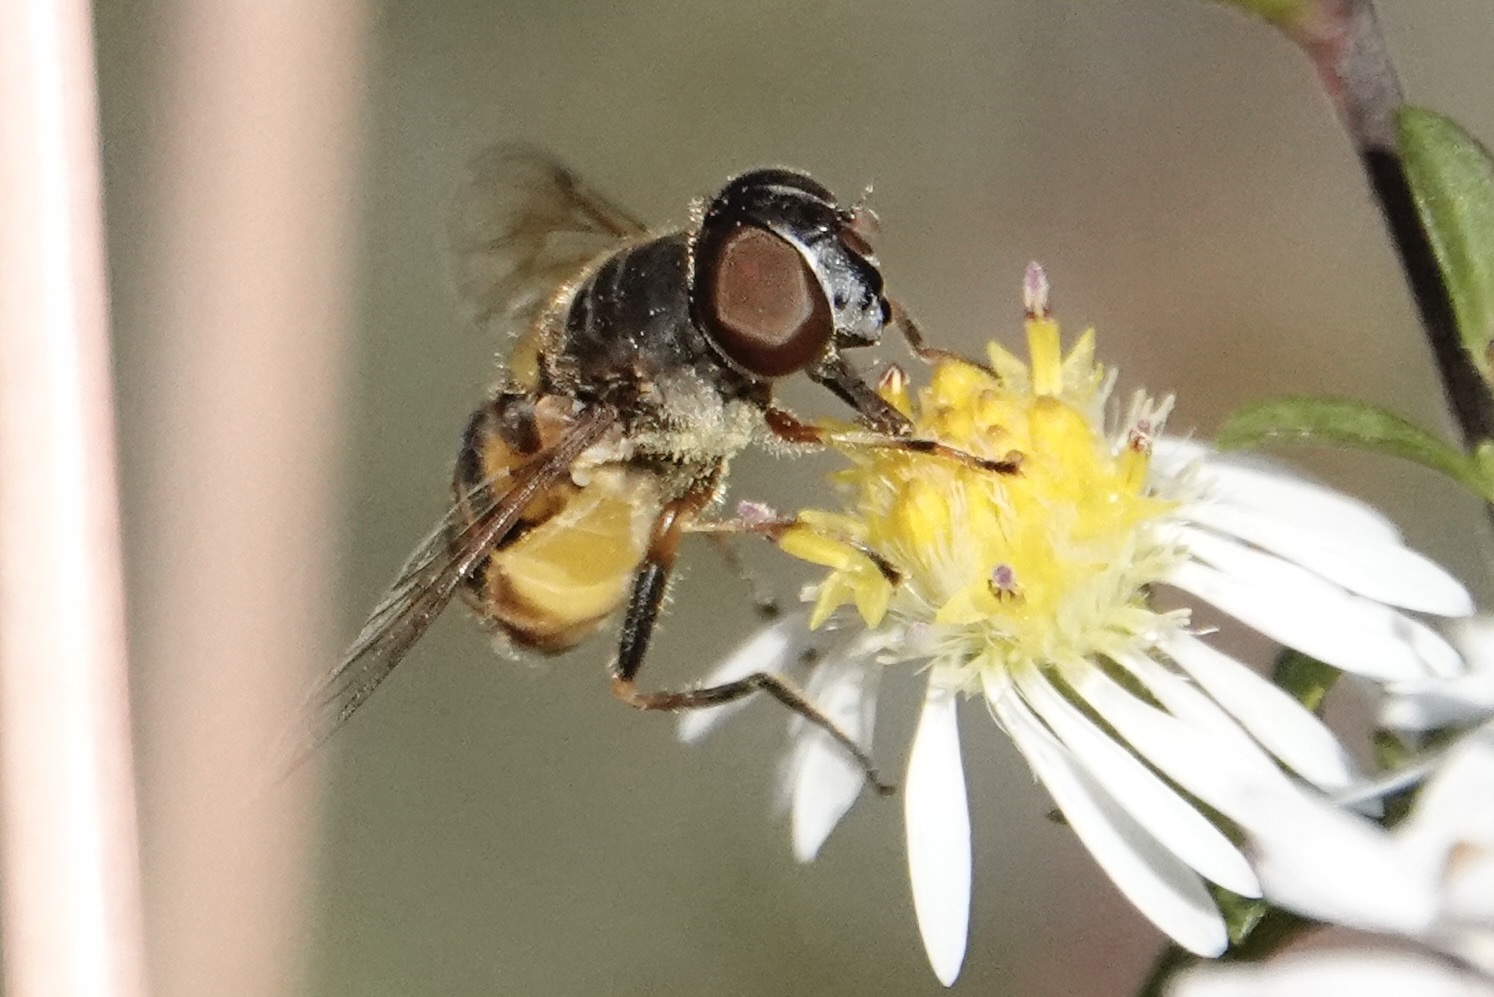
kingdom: Animalia
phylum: Arthropoda
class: Insecta
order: Diptera
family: Syrphidae
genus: Eristalis
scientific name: Eristalis transversa
